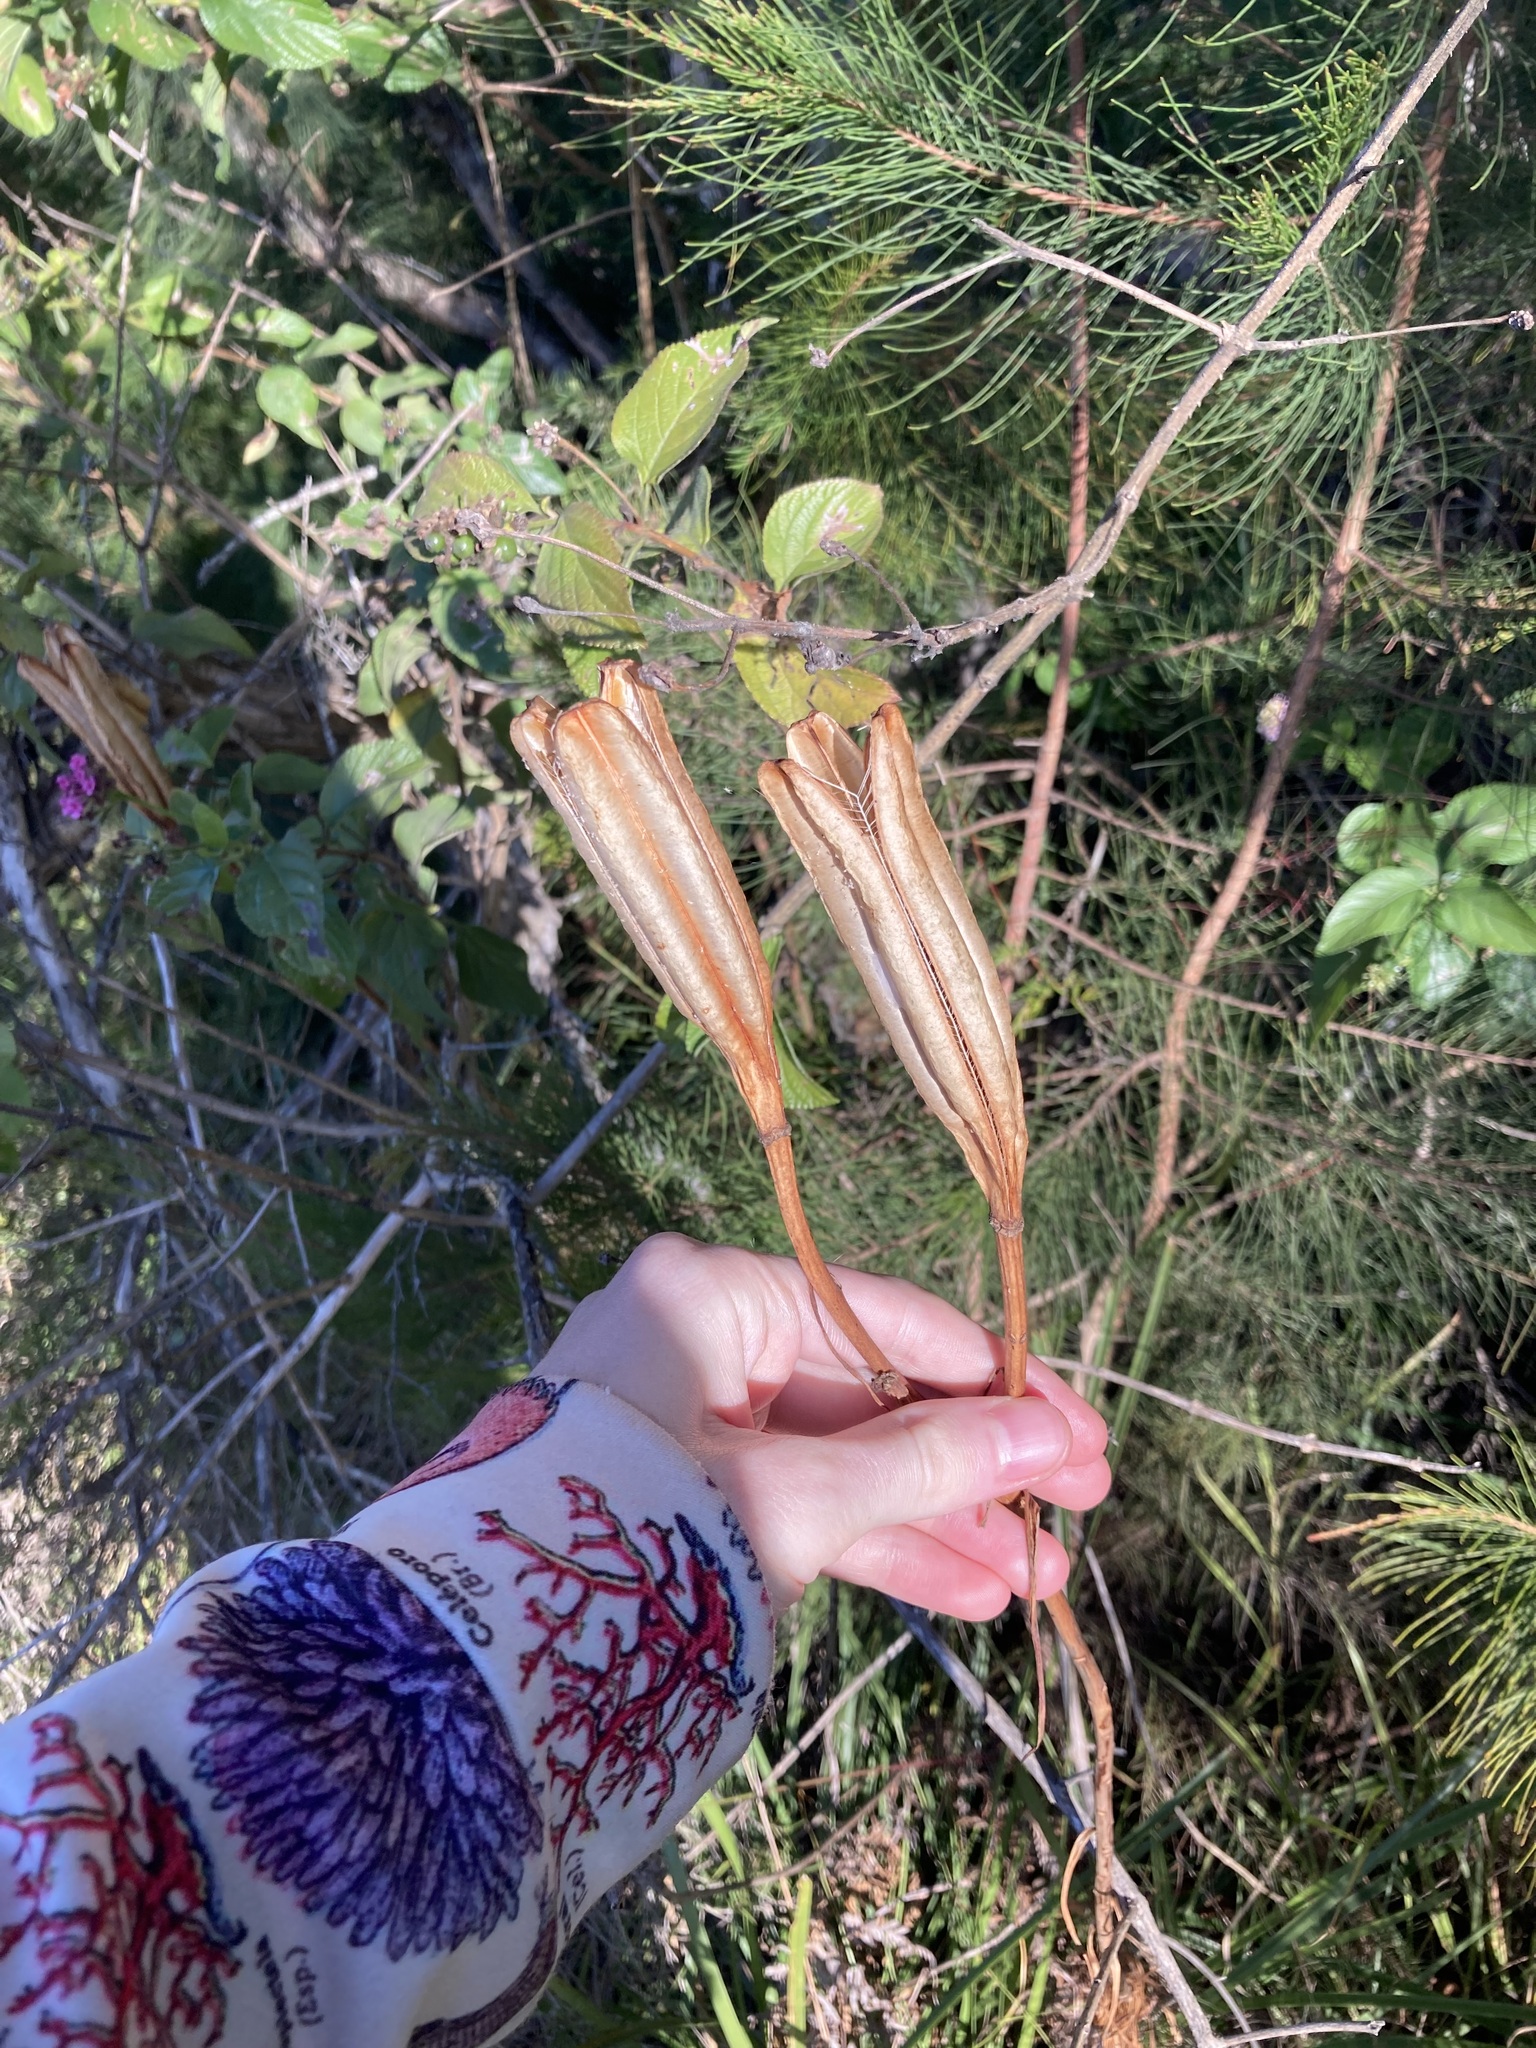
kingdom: Plantae
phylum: Tracheophyta
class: Liliopsida
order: Liliales
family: Liliaceae
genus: Lilium
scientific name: Lilium formosanum
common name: Formosa lily
